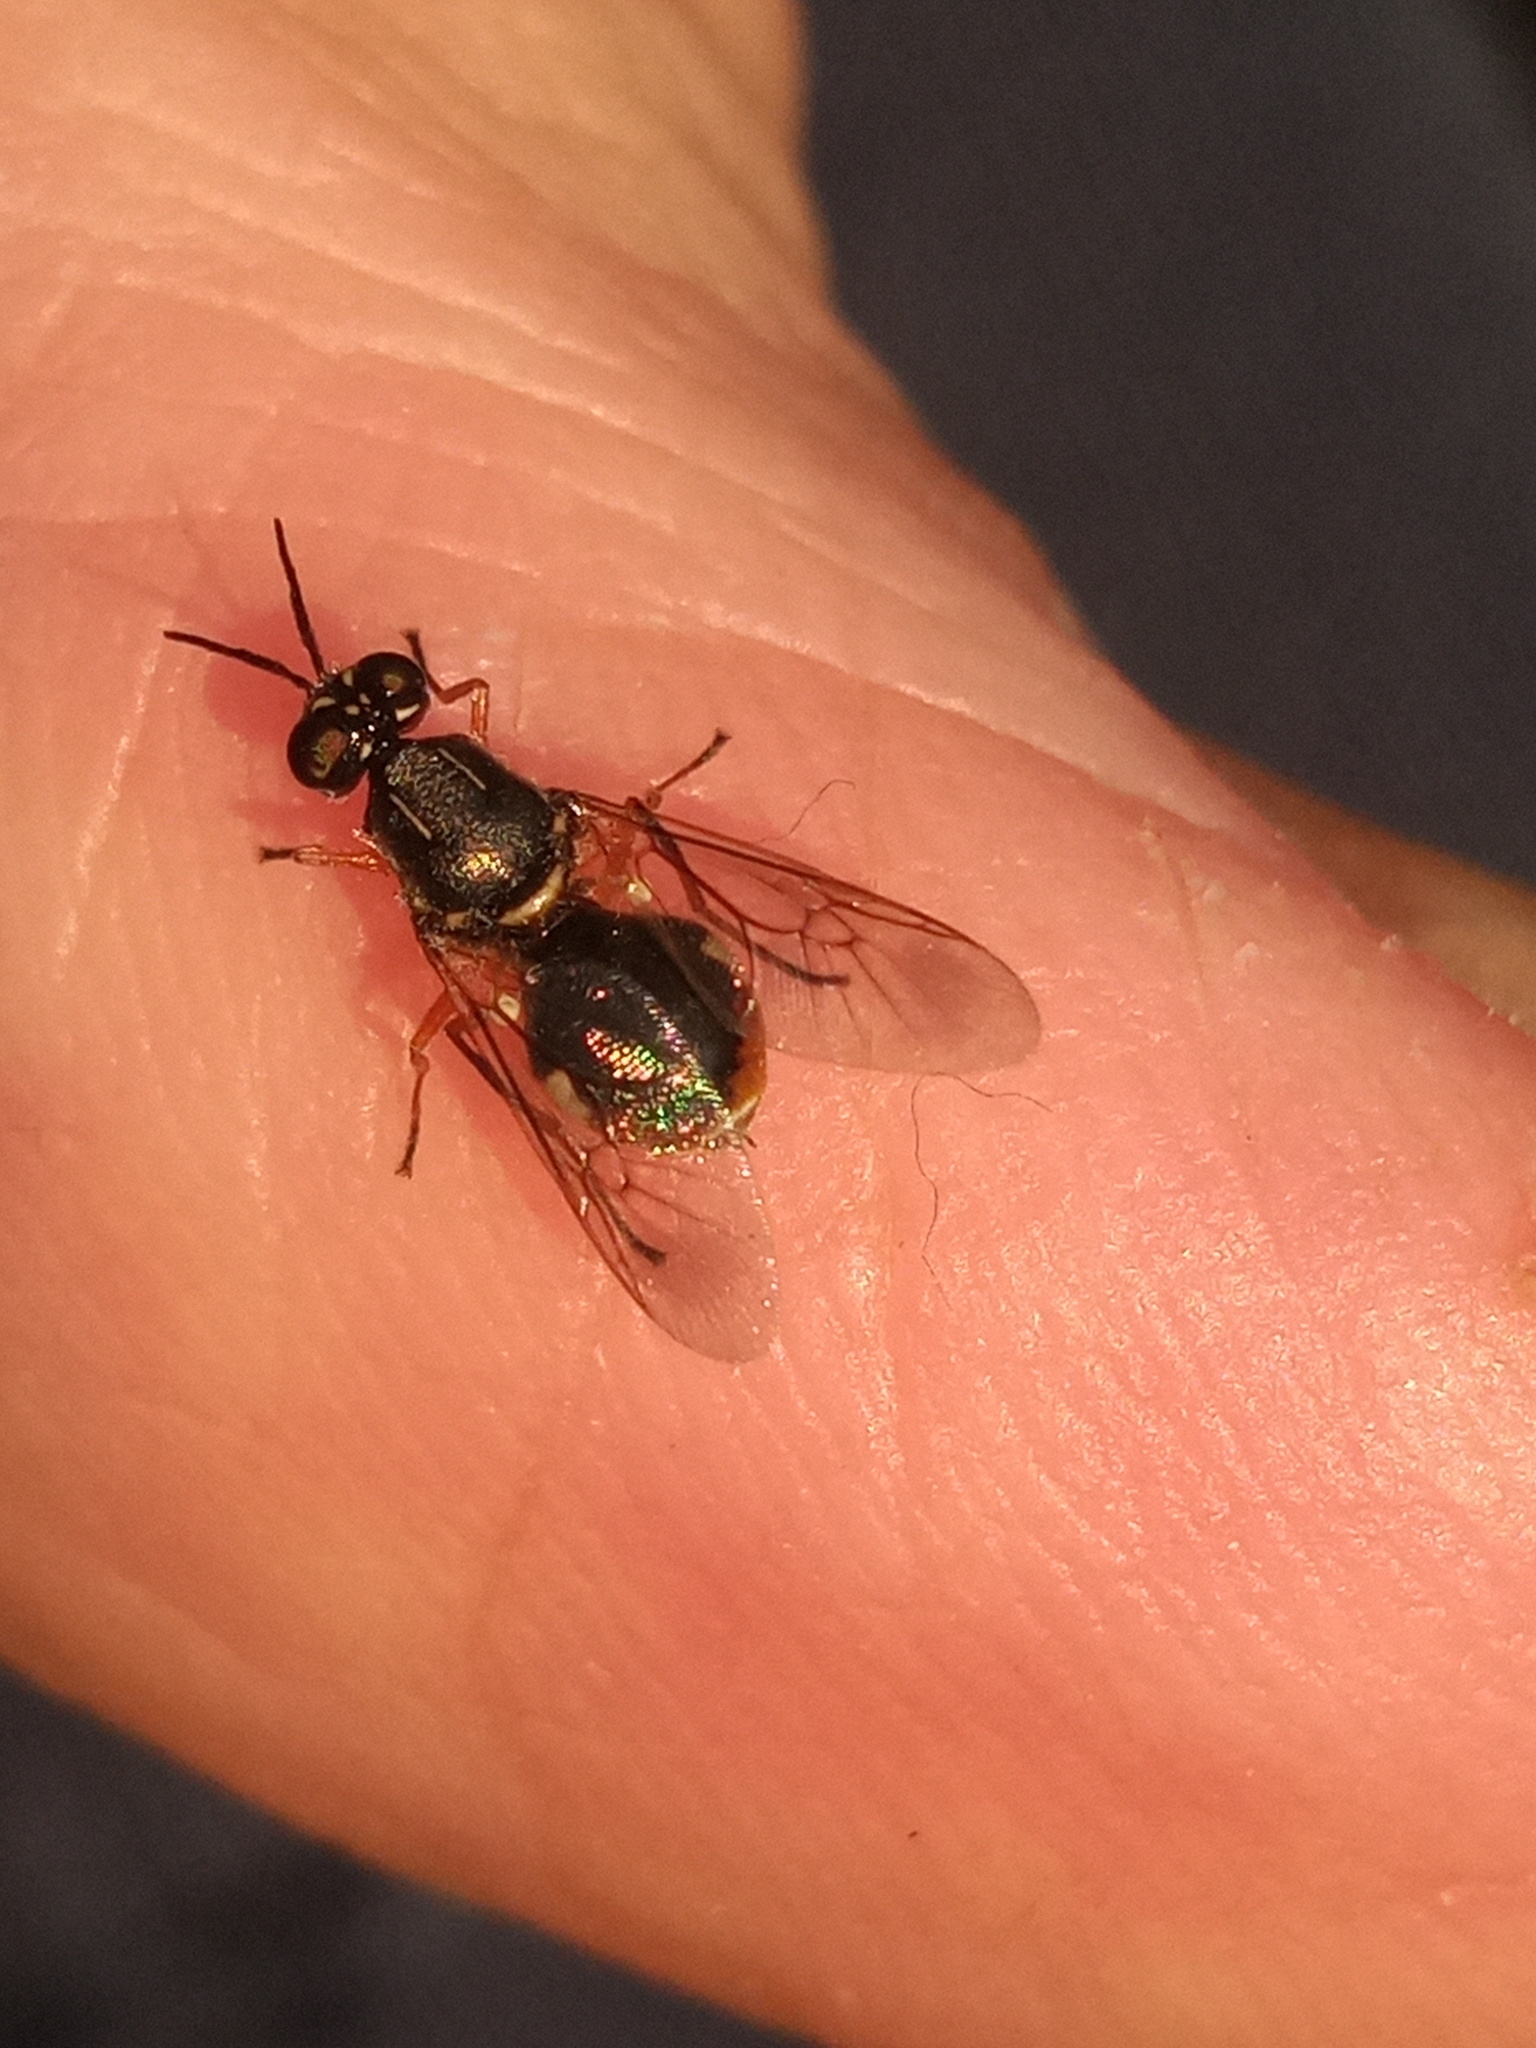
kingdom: Animalia
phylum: Arthropoda
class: Insecta
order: Diptera
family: Stratiomyidae
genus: Euparyphus
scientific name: Euparyphus patagius
